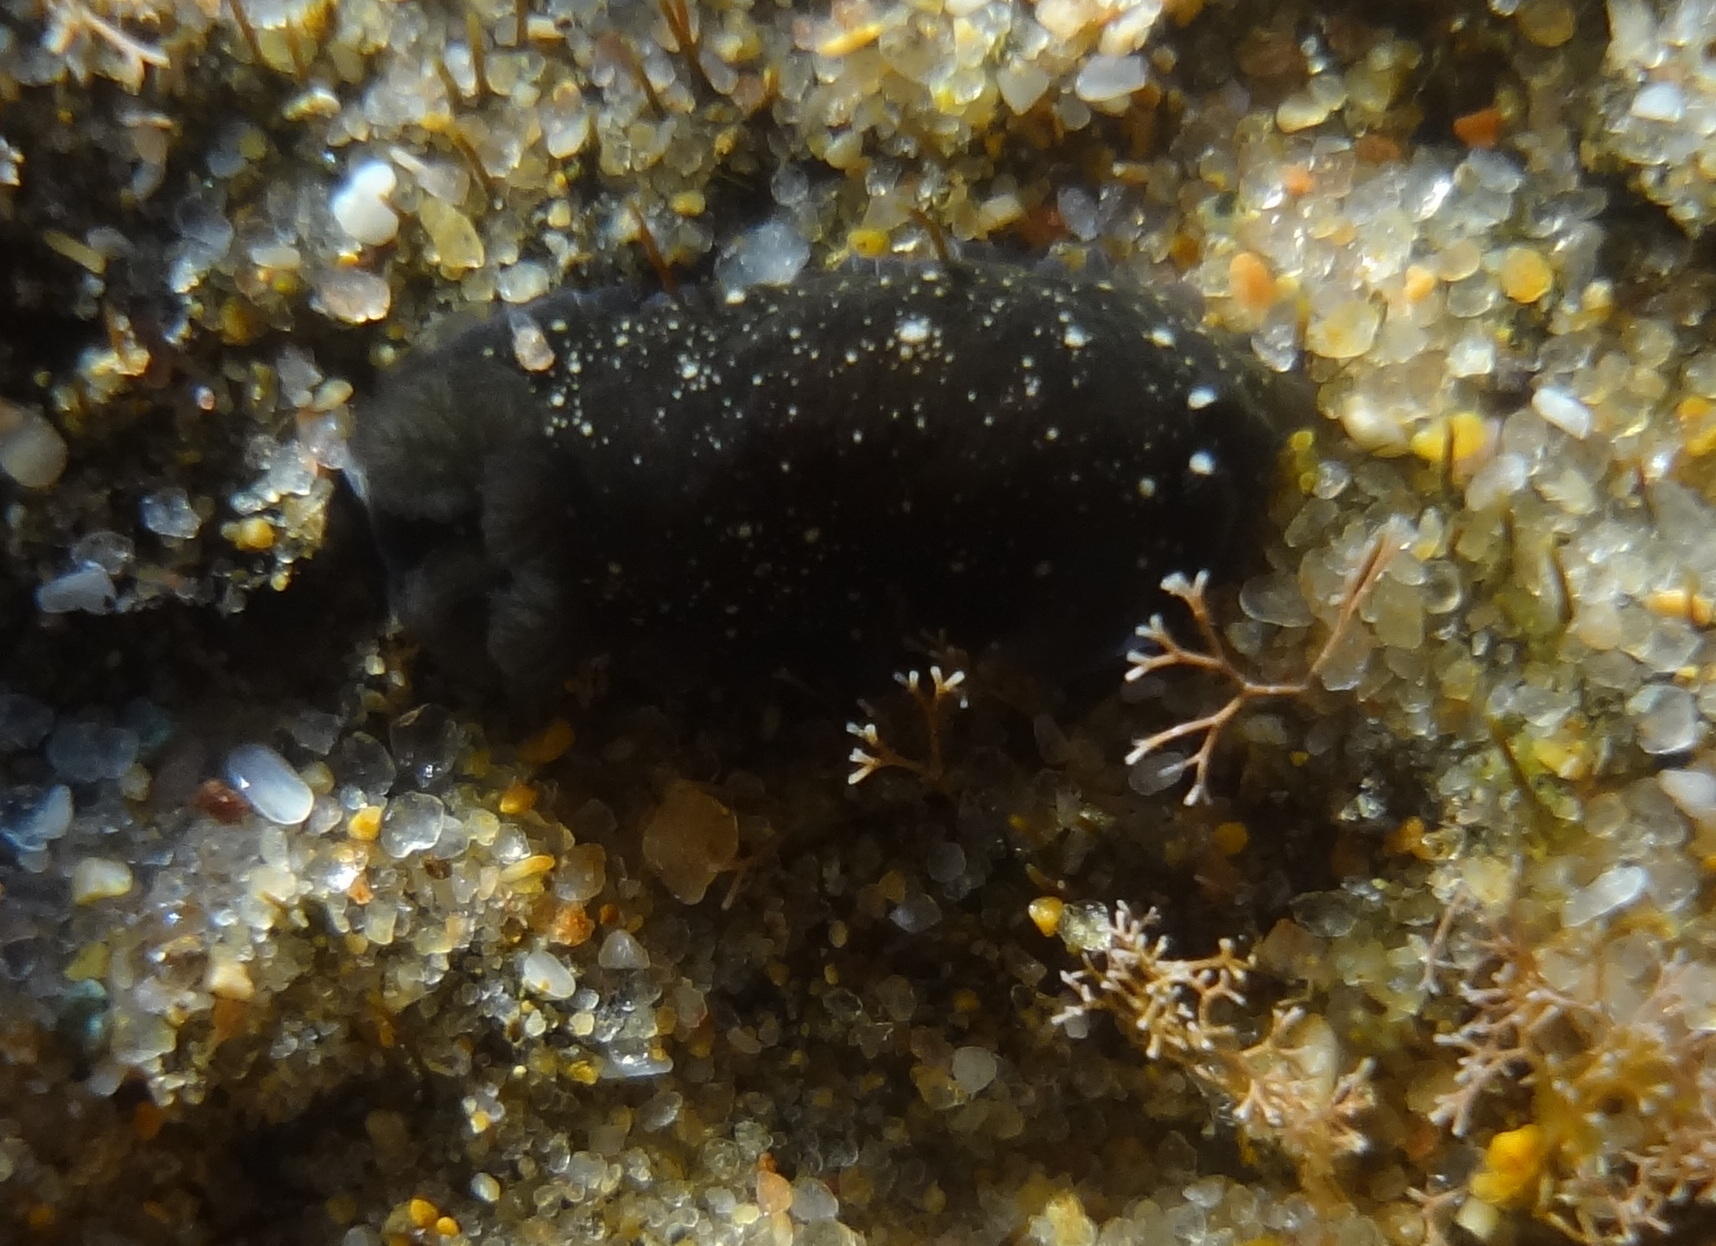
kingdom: Animalia
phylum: Mollusca
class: Gastropoda
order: Nudibranchia
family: Dendrodorididae
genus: Dendrodoris
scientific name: Dendrodoris nigra
